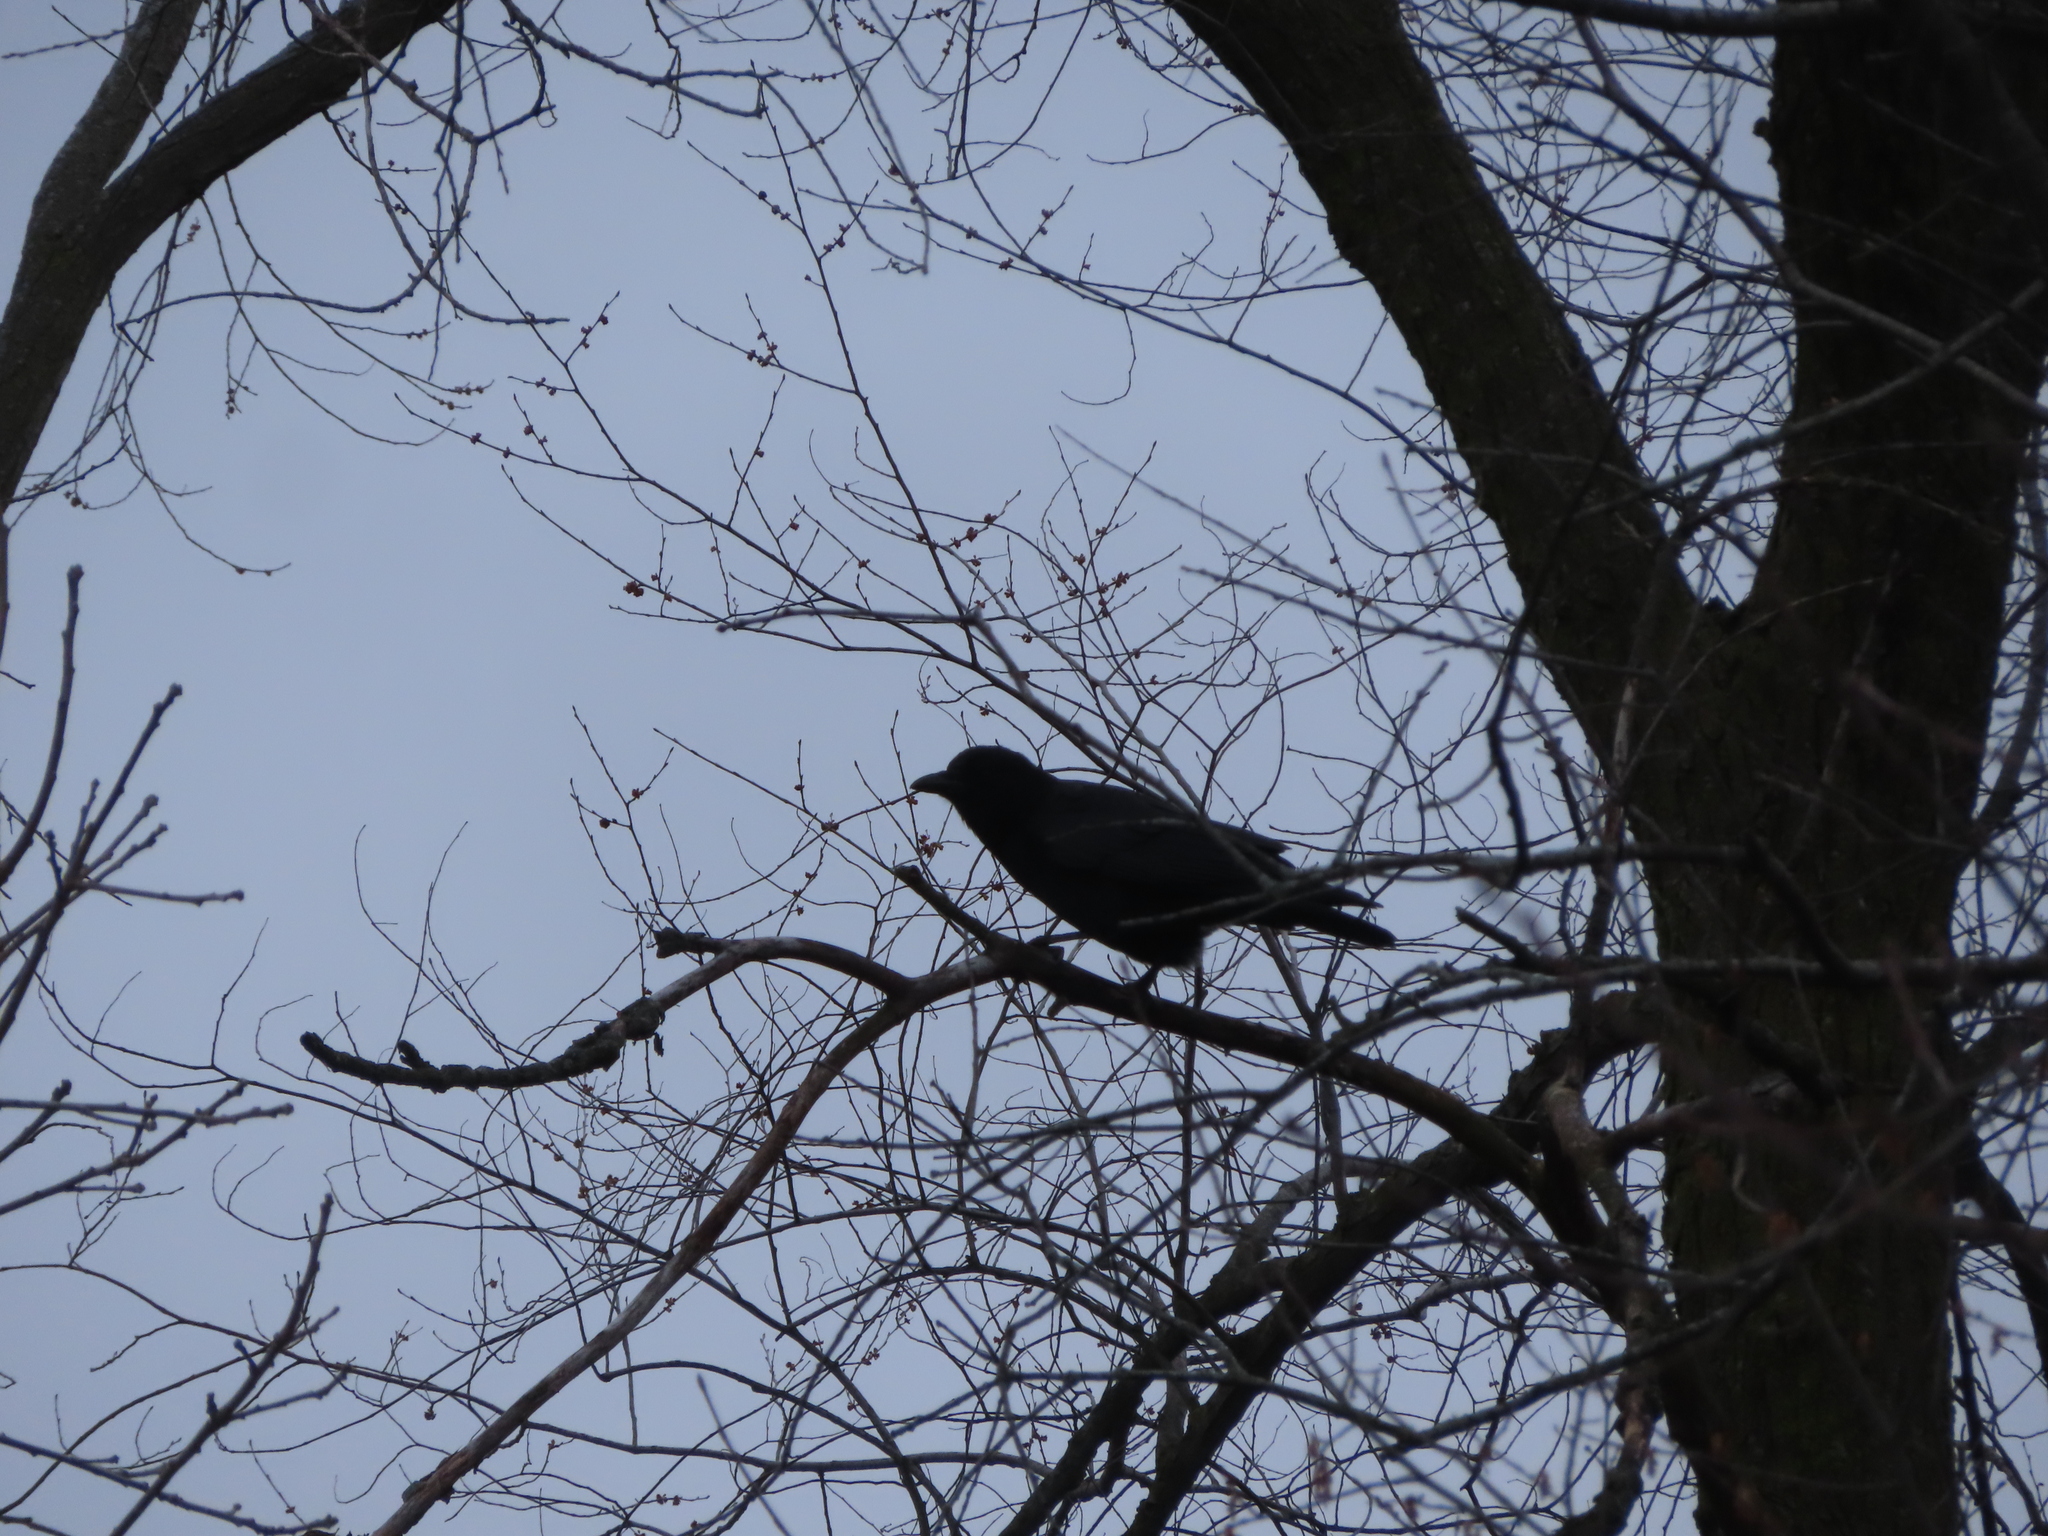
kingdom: Animalia
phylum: Chordata
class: Aves
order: Passeriformes
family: Corvidae
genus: Corvus
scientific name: Corvus brachyrhynchos
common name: American crow
